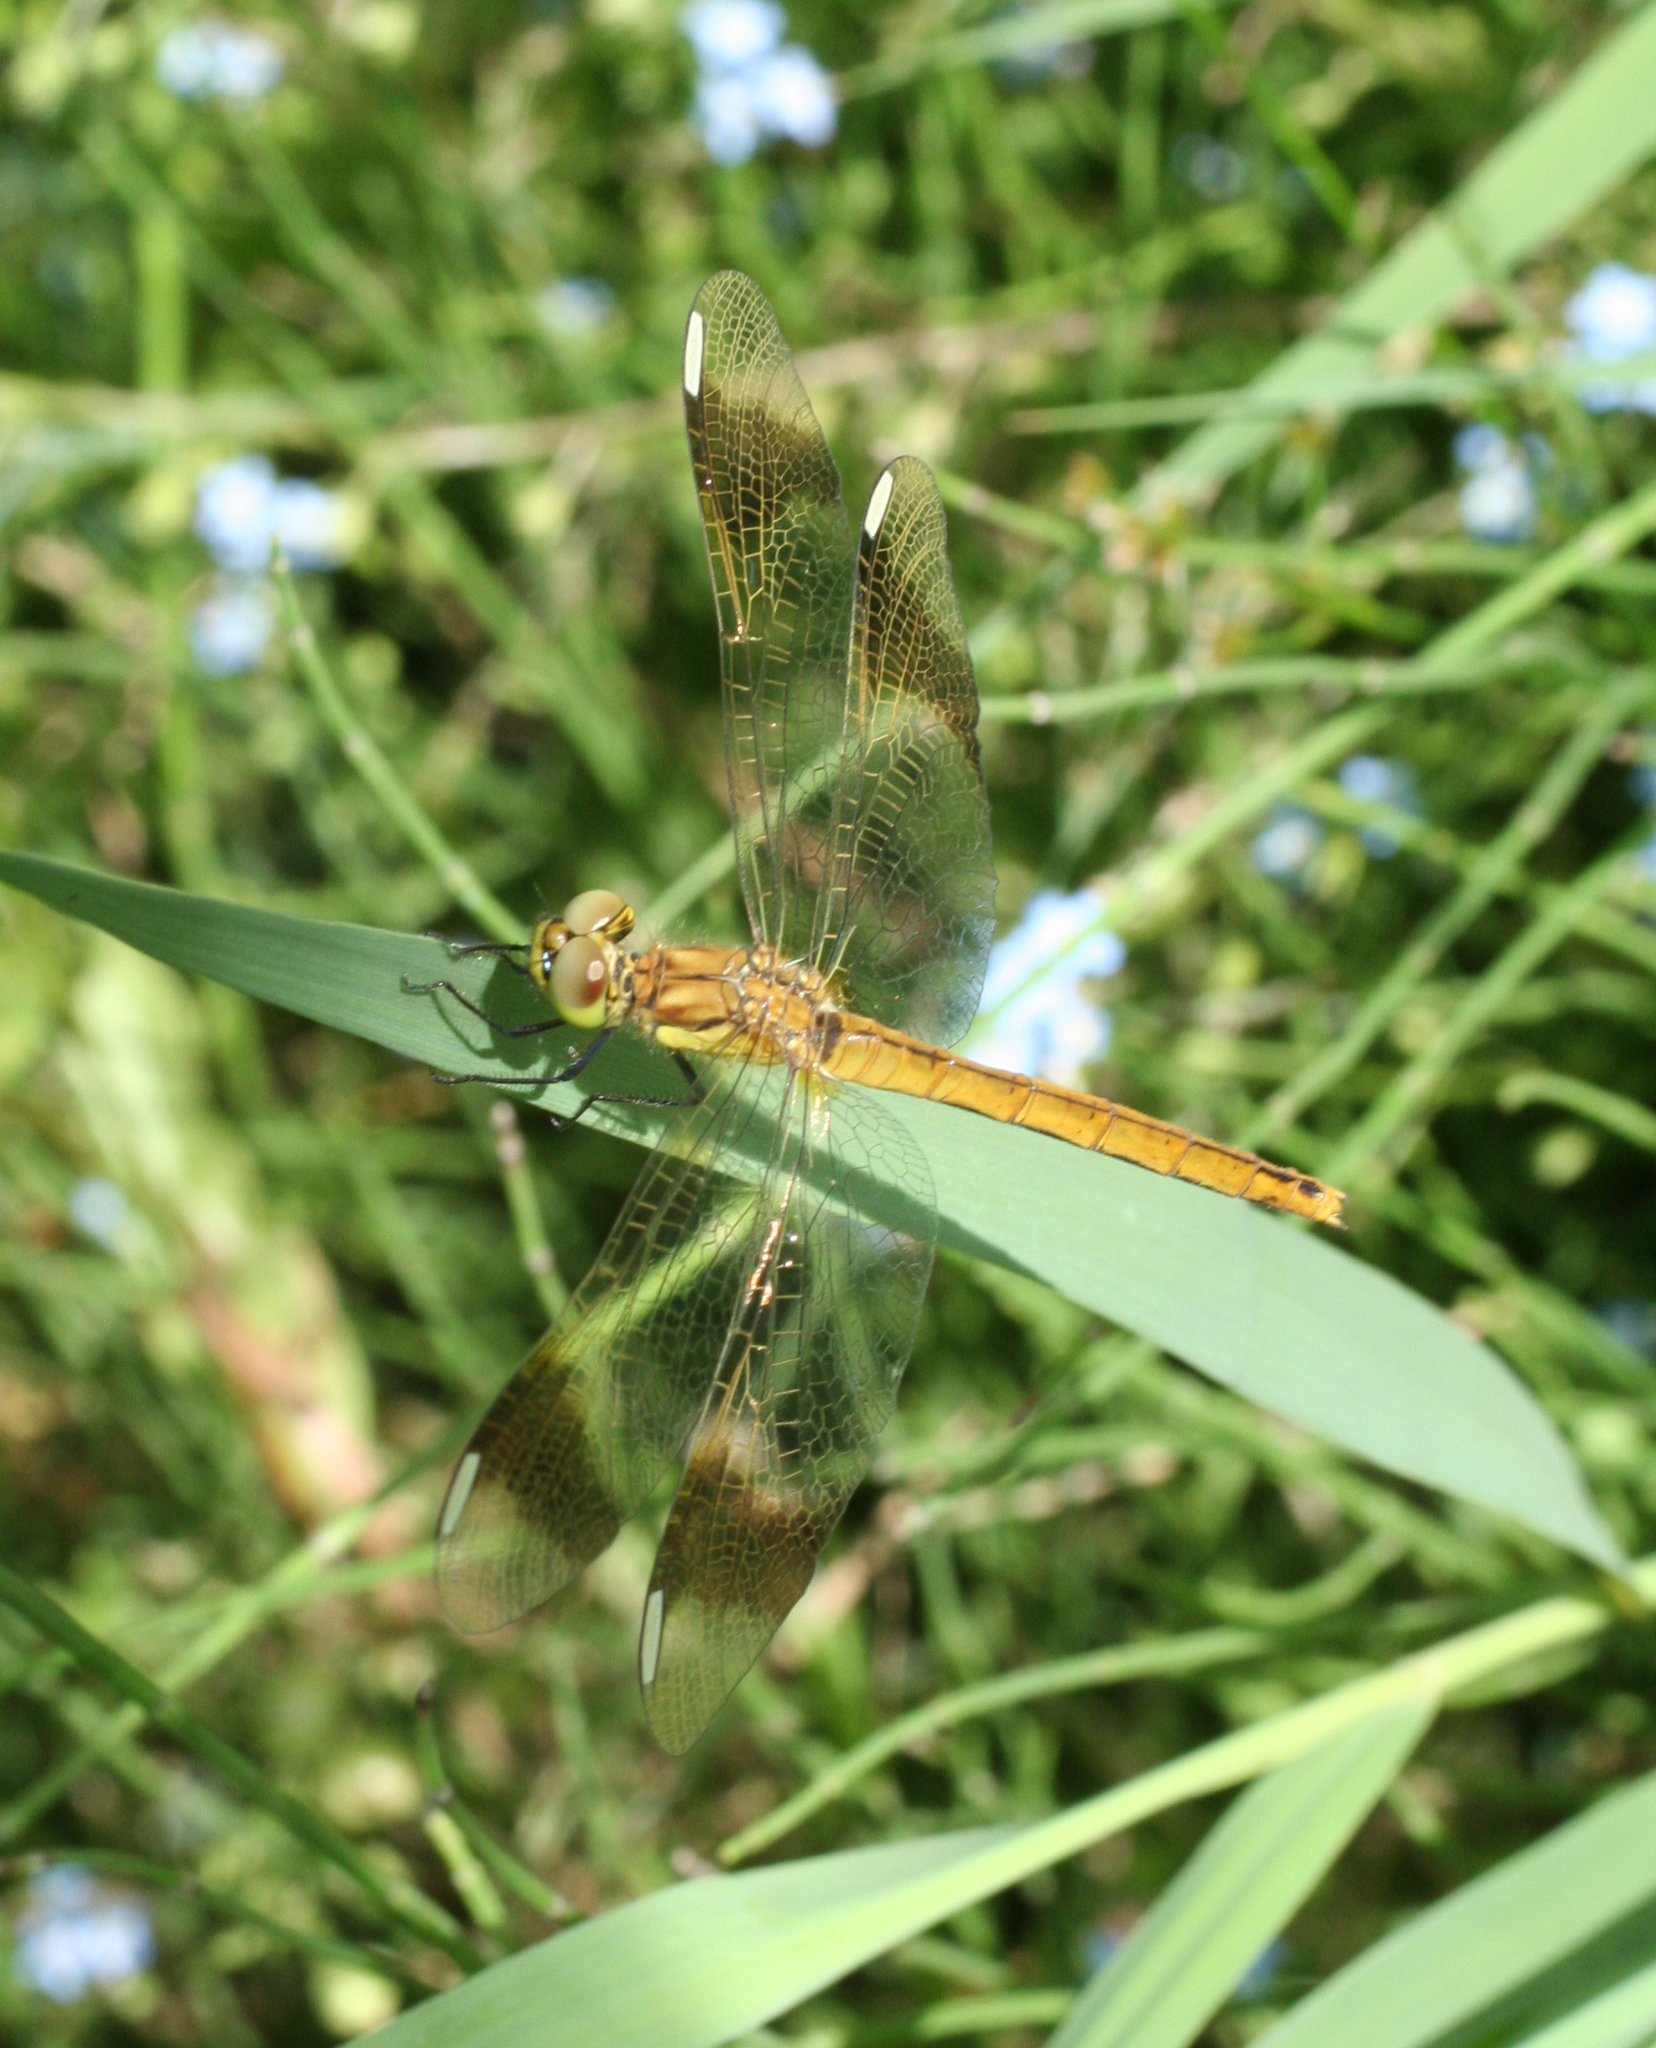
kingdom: Animalia
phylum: Arthropoda
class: Insecta
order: Odonata
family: Libellulidae
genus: Sympetrum
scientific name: Sympetrum pedemontanum
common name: Banded darter
